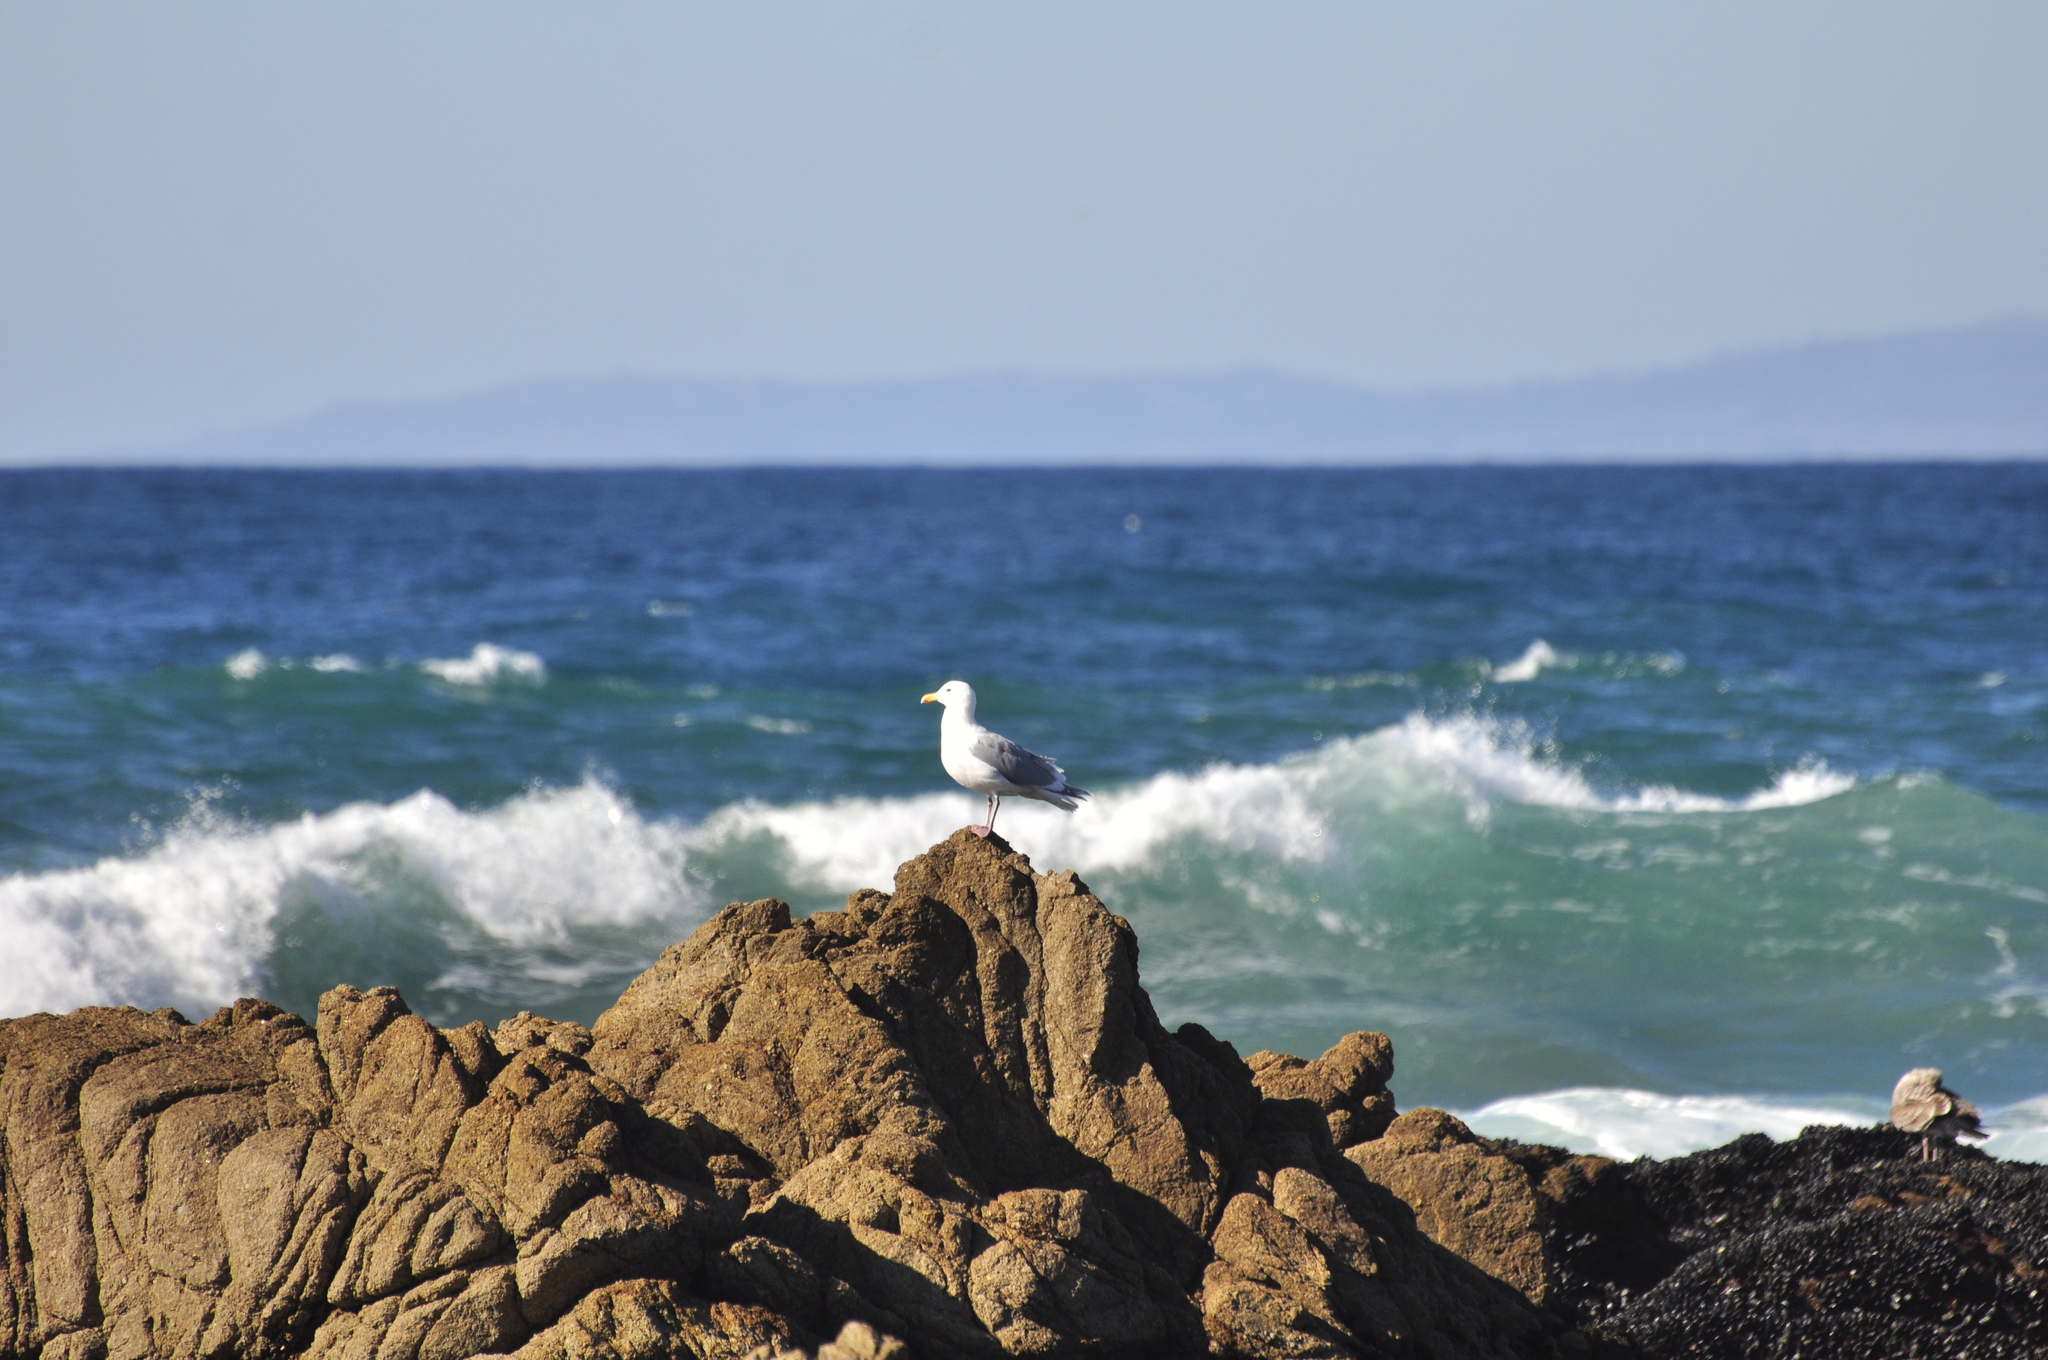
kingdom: Animalia
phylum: Chordata
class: Aves
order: Charadriiformes
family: Laridae
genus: Larus
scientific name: Larus occidentalis
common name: Western gull
